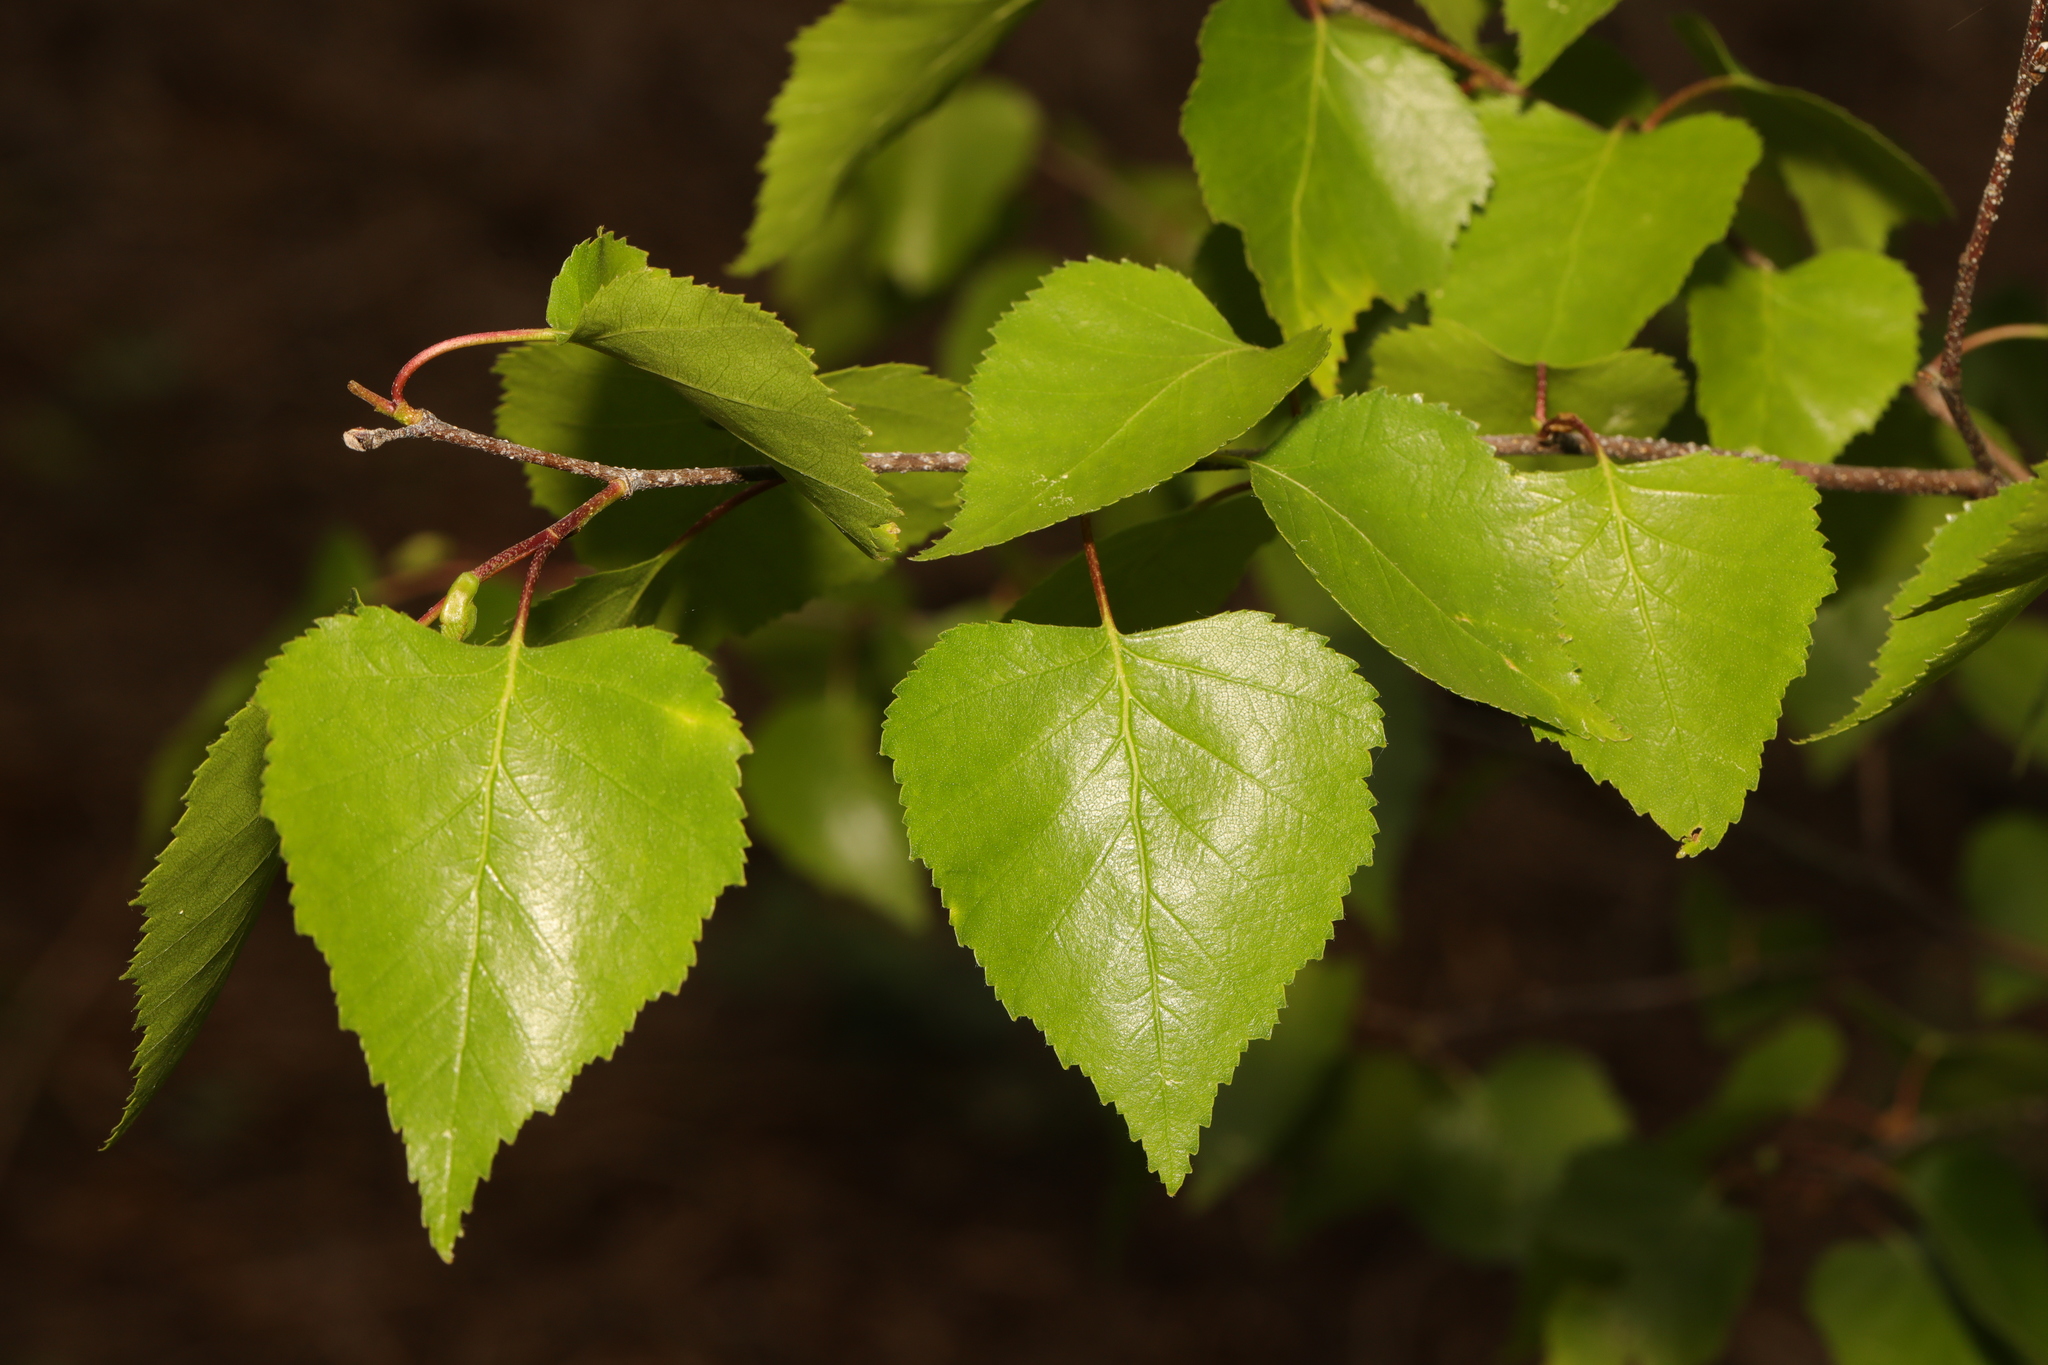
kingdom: Plantae
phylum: Tracheophyta
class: Magnoliopsida
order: Fagales
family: Betulaceae
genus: Betula
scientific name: Betula pendula
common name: Silver birch
